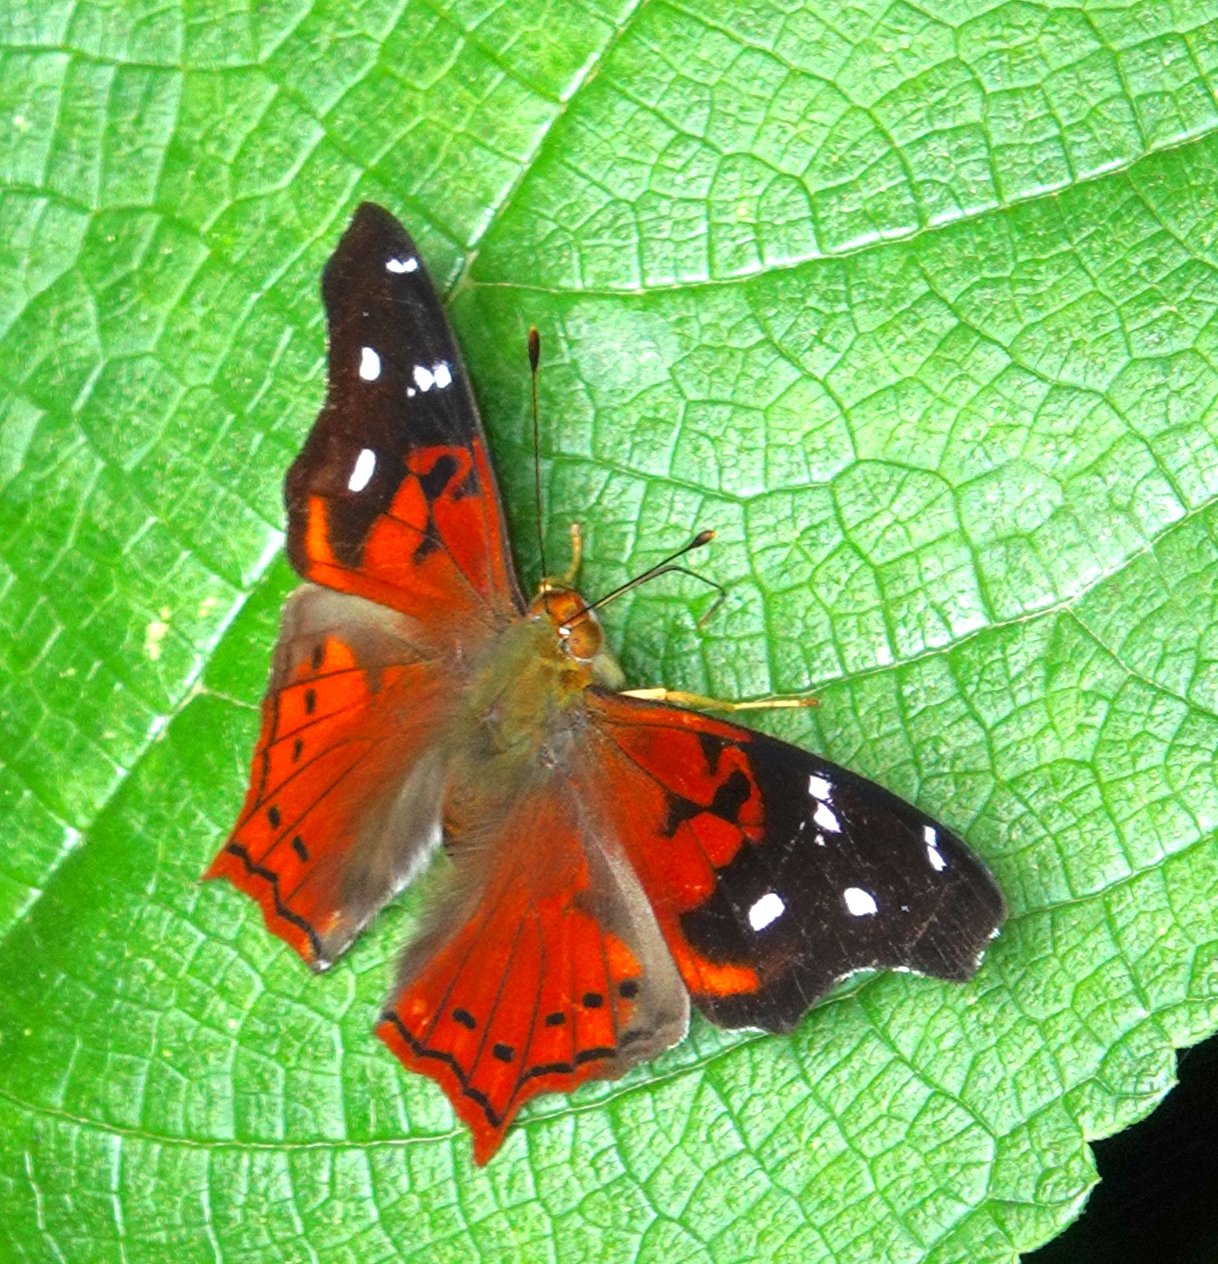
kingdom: Animalia
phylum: Arthropoda
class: Insecta
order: Lepidoptera
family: Nymphalidae
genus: Hypanartia
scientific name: Hypanartia kefersteini
